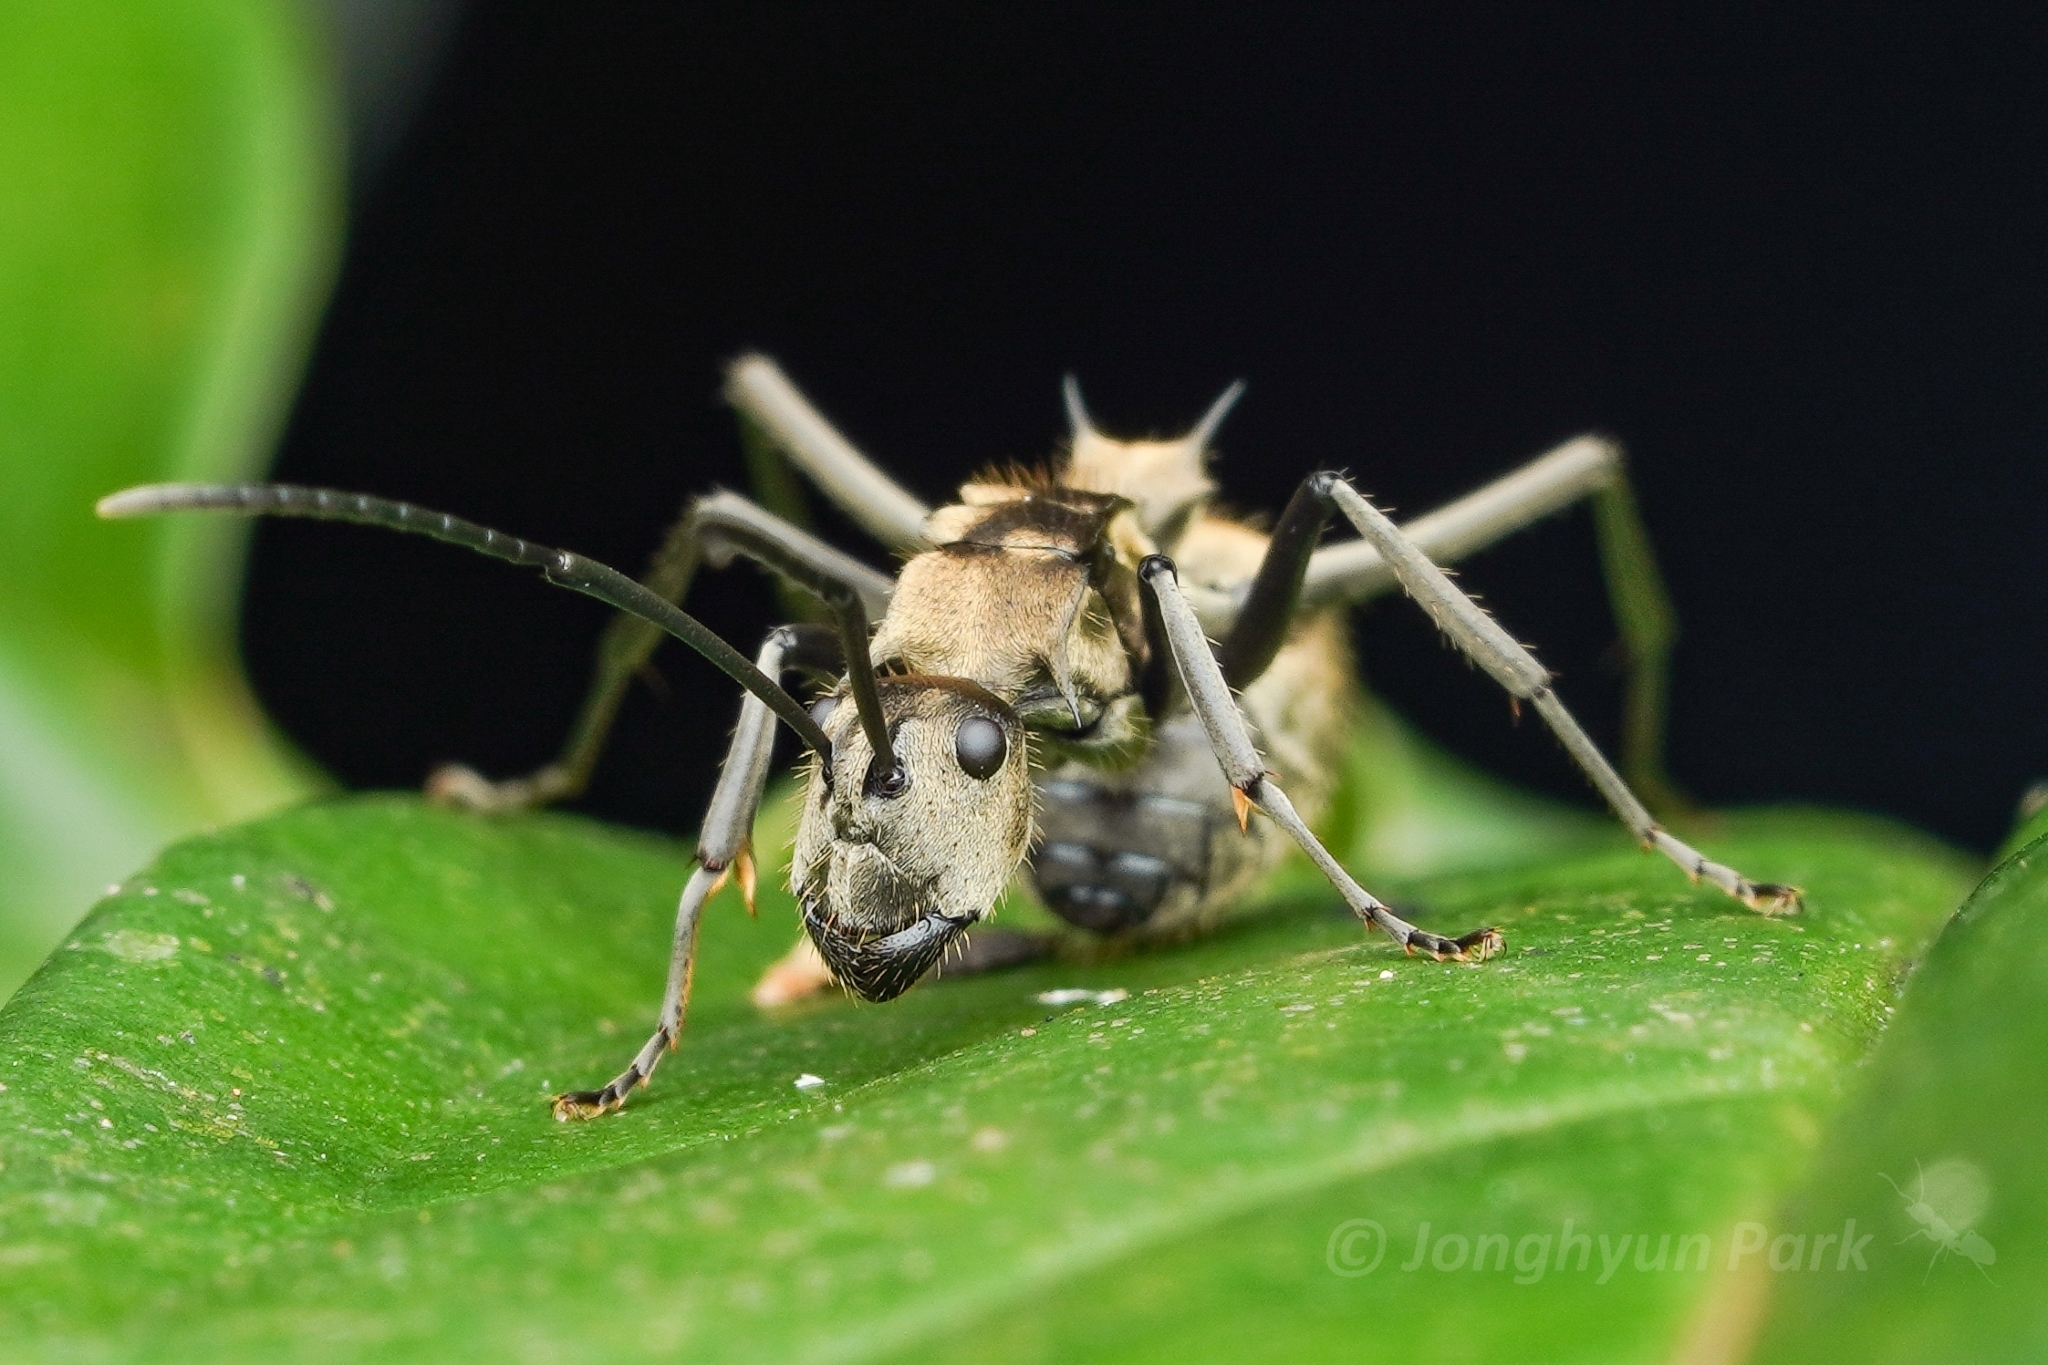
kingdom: Animalia
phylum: Arthropoda
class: Insecta
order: Hymenoptera
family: Formicidae
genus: Polyrhachis
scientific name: Polyrhachis proxima
